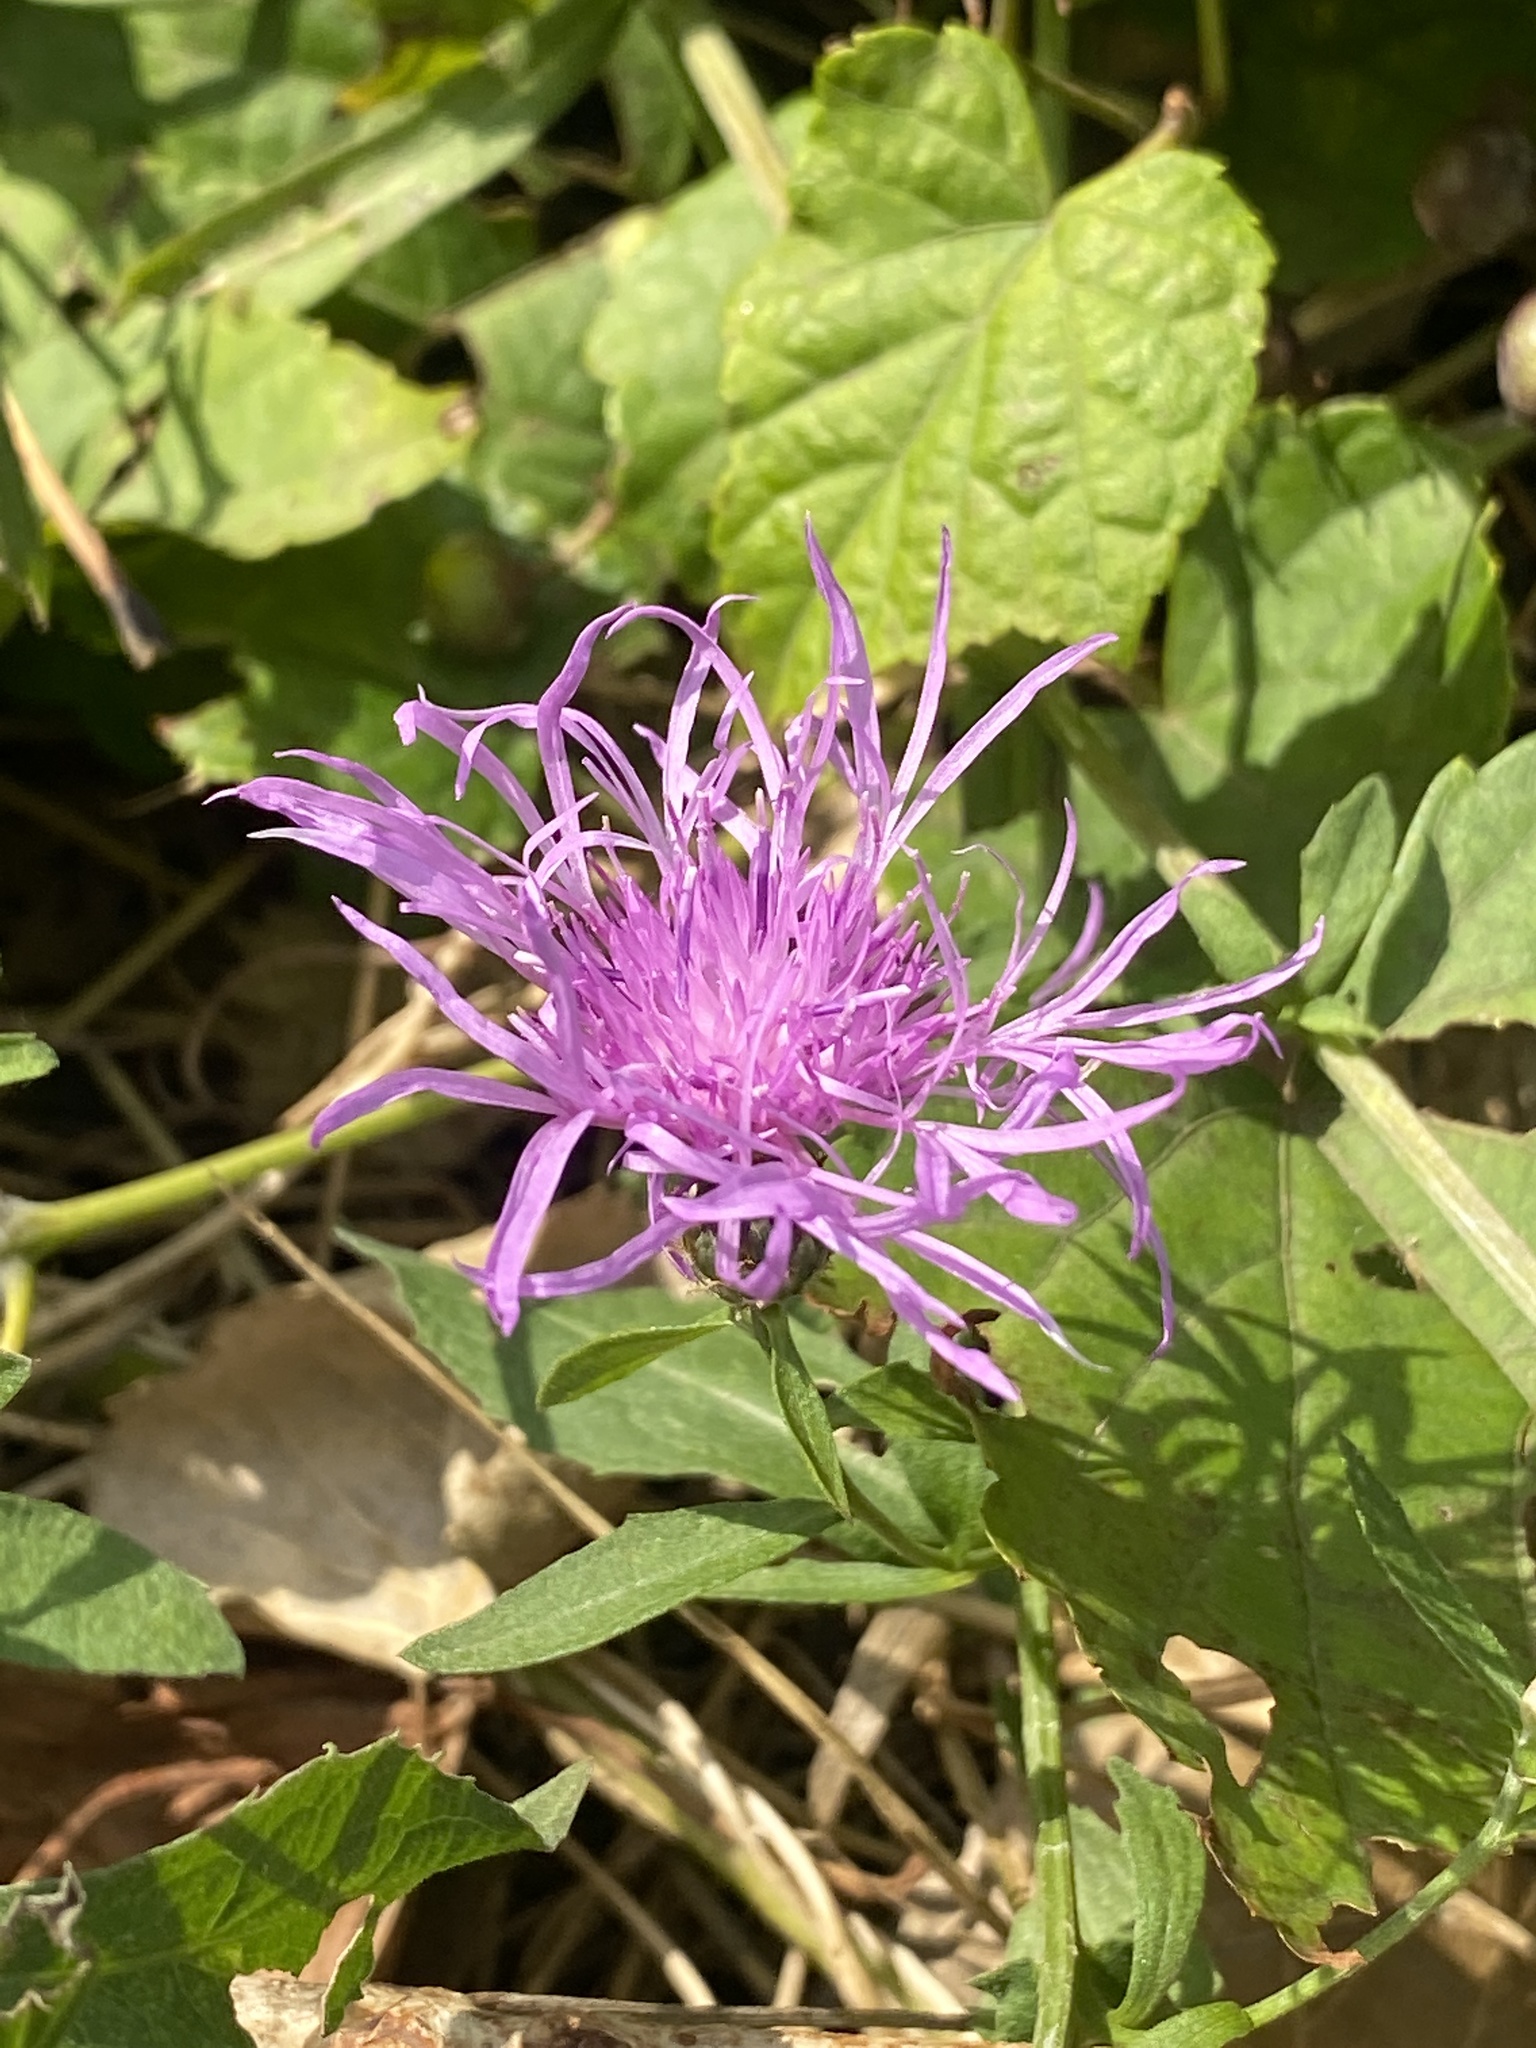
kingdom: Plantae
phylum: Tracheophyta
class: Magnoliopsida
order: Asterales
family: Asteraceae
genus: Centaurea
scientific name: Centaurea nigrescens
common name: Tyrol knapweed
